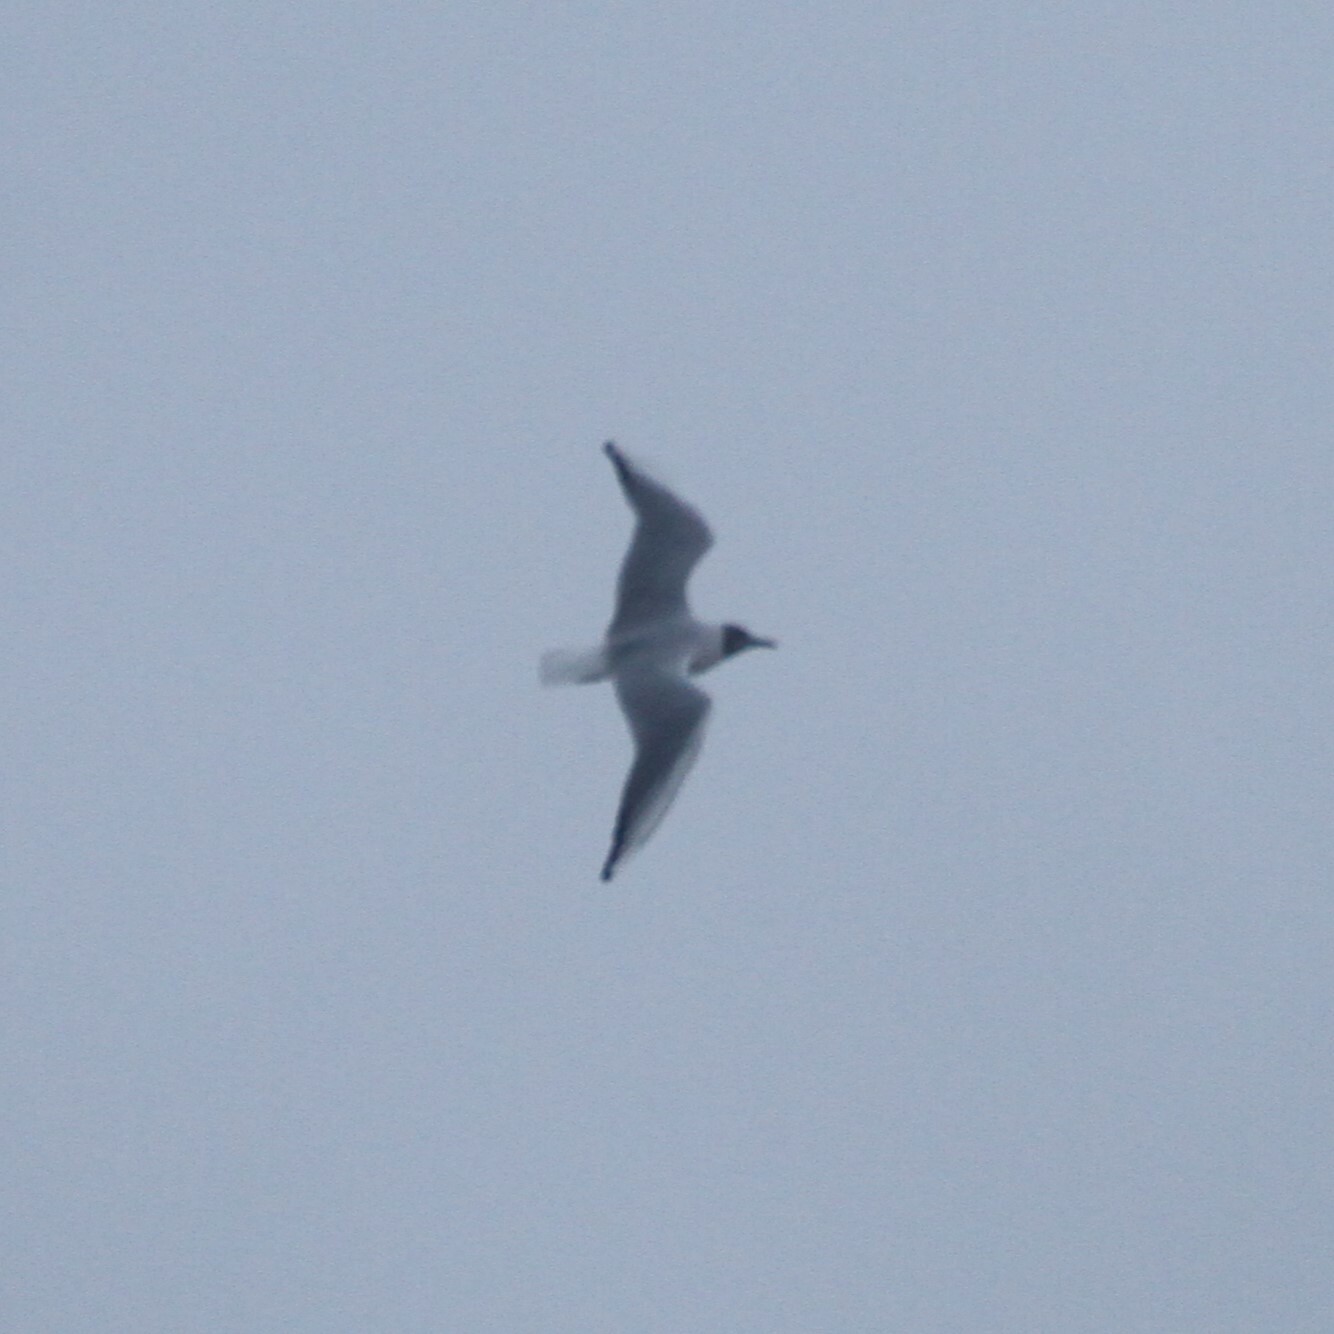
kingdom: Animalia
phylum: Chordata
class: Aves
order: Charadriiformes
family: Laridae
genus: Chroicocephalus
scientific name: Chroicocephalus ridibundus
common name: Black-headed gull
